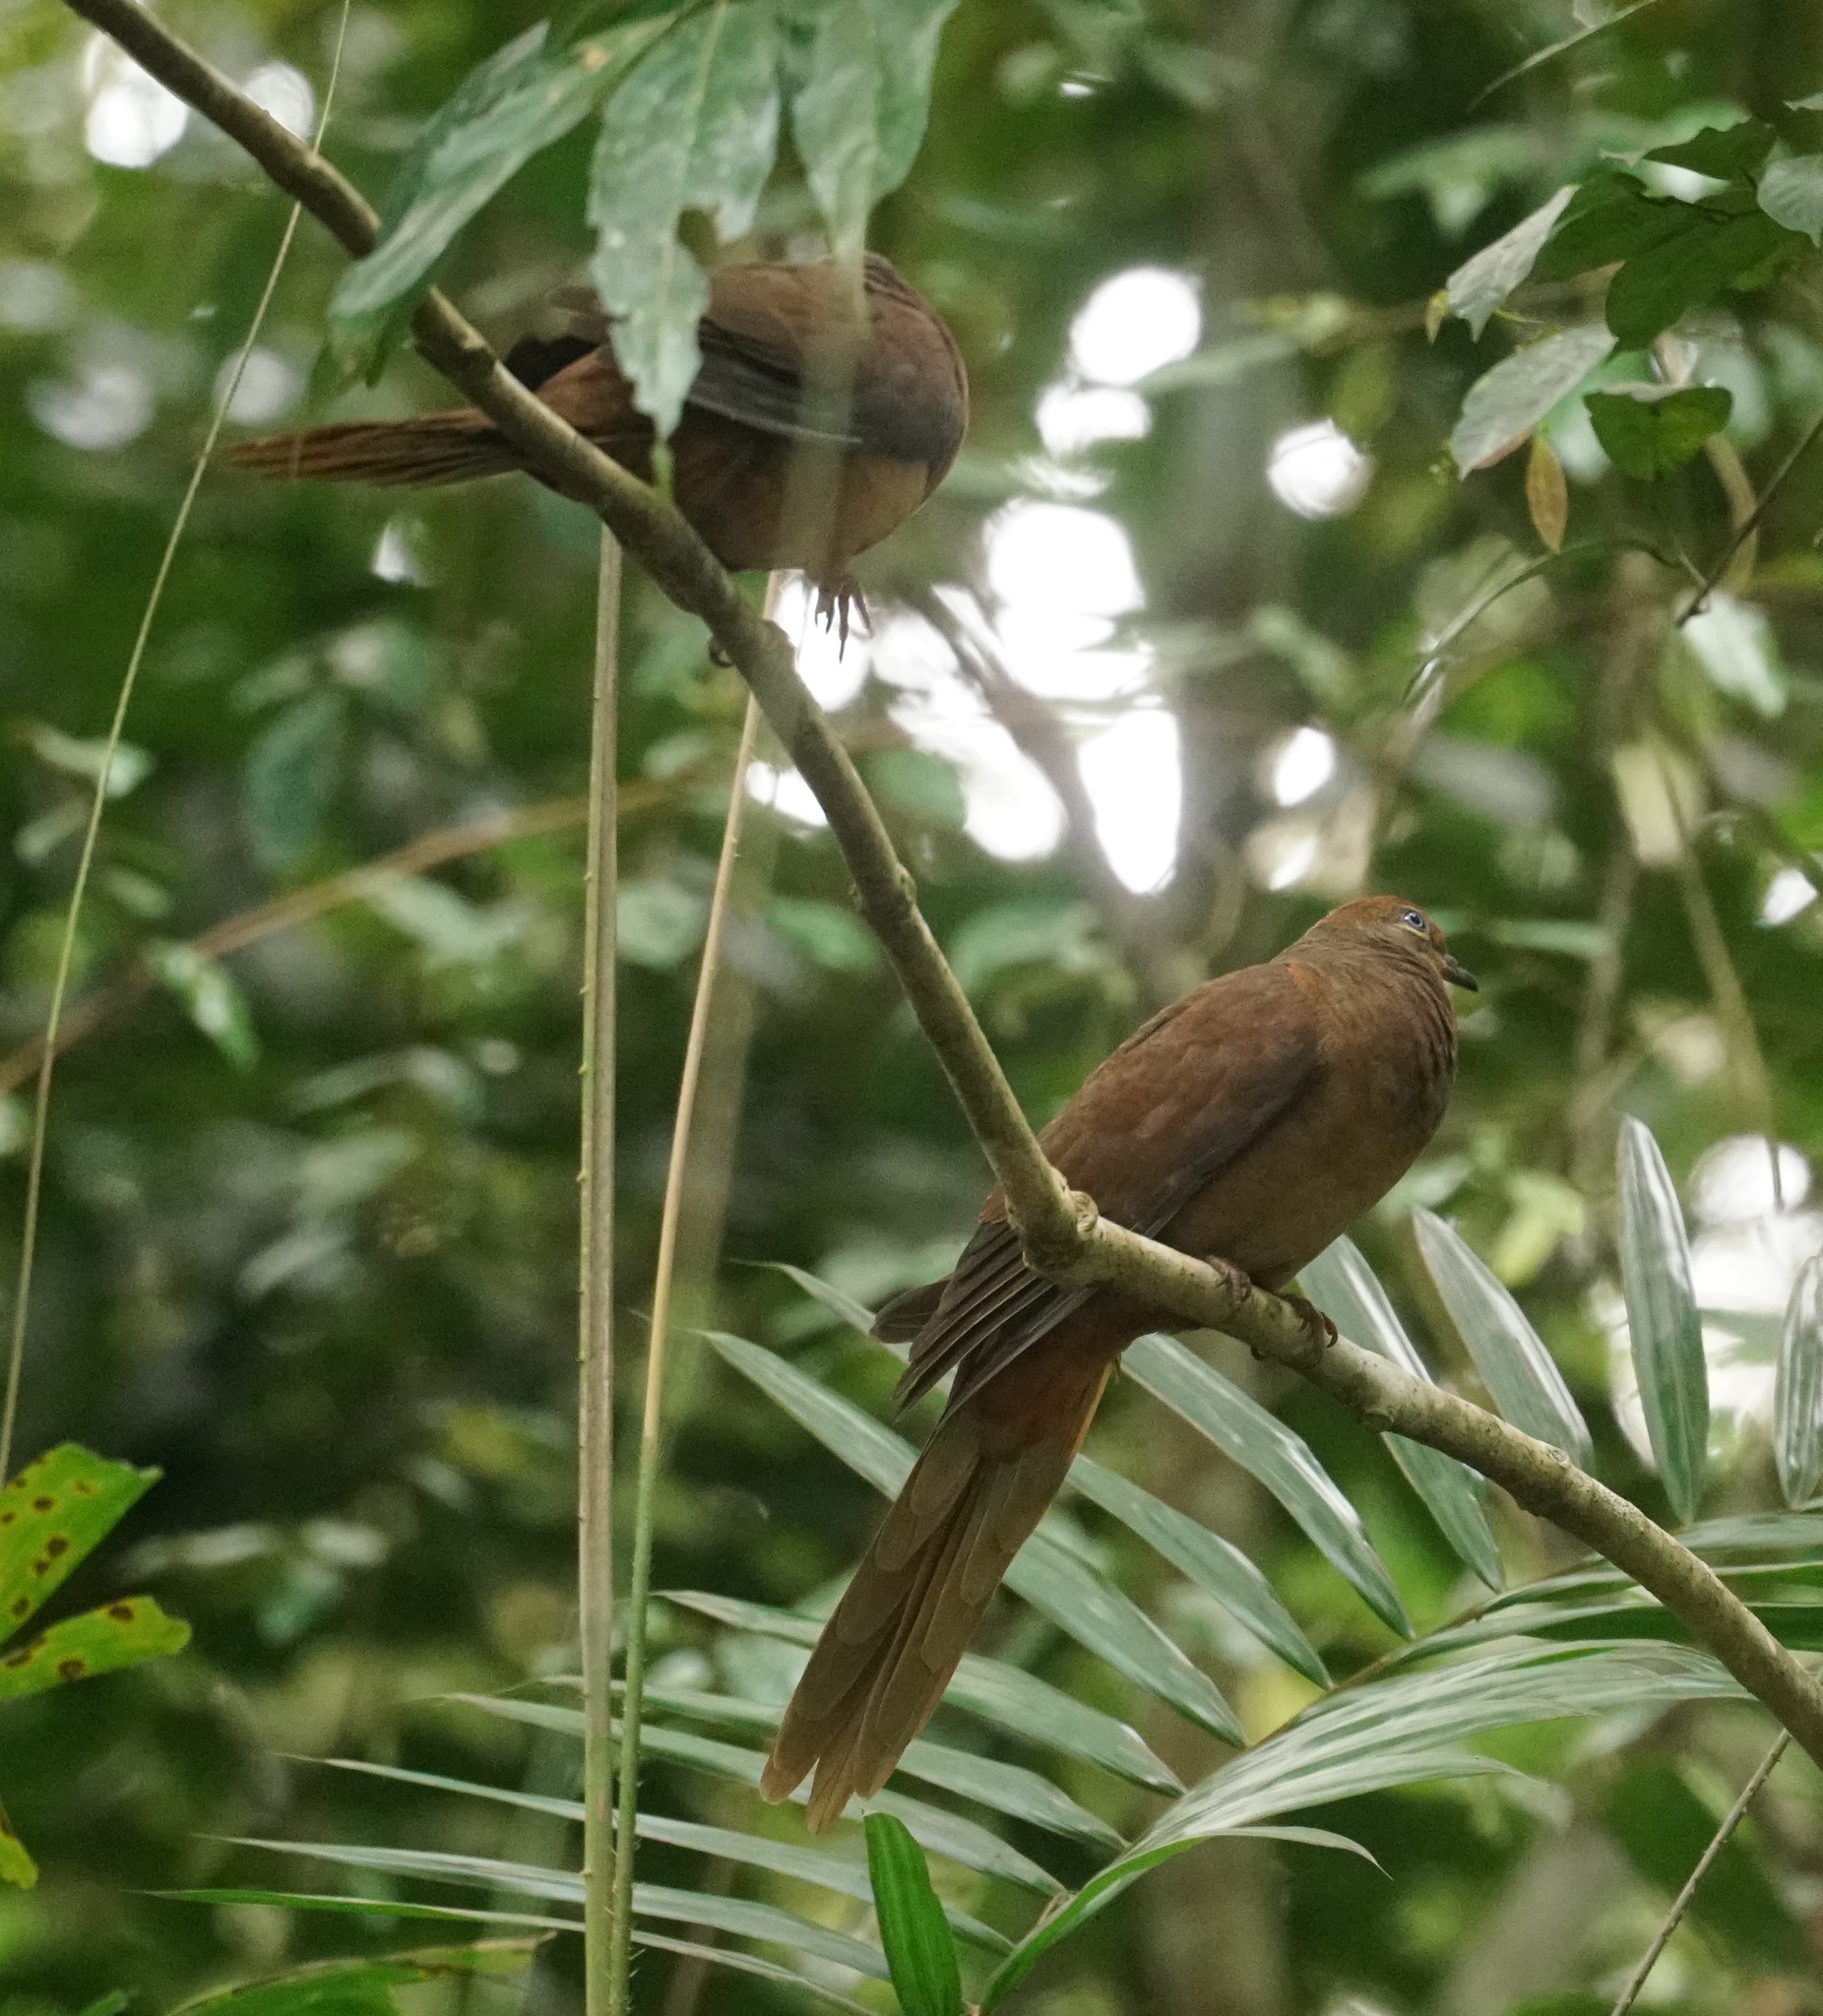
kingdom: Animalia
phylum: Chordata
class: Aves
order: Columbiformes
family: Columbidae
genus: Macropygia
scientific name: Macropygia phasianella
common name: Brown cuckoo-dove
